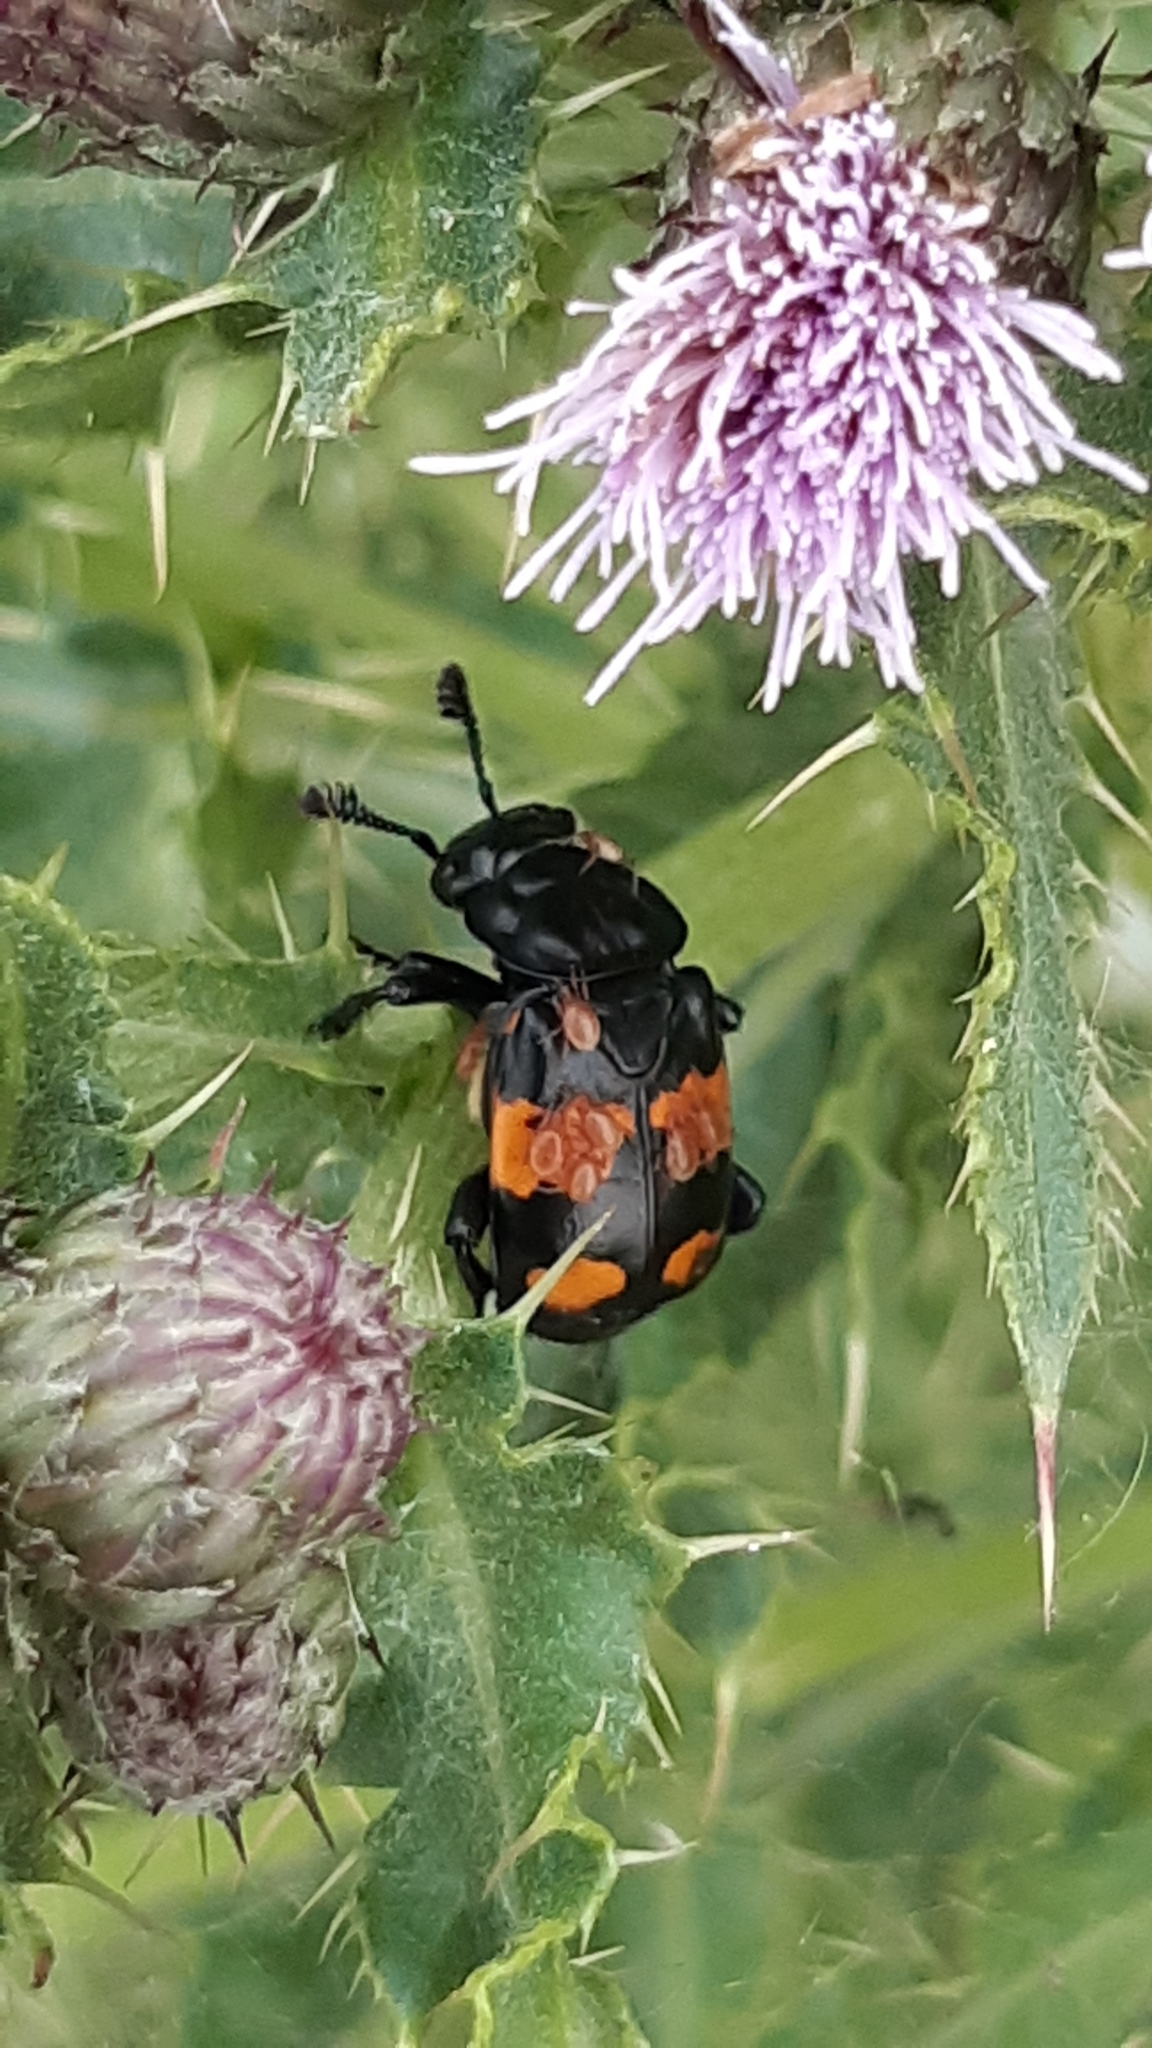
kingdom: Animalia
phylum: Arthropoda
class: Insecta
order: Coleoptera
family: Staphylinidae
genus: Nicrophorus
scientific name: Nicrophorus vespilloides
